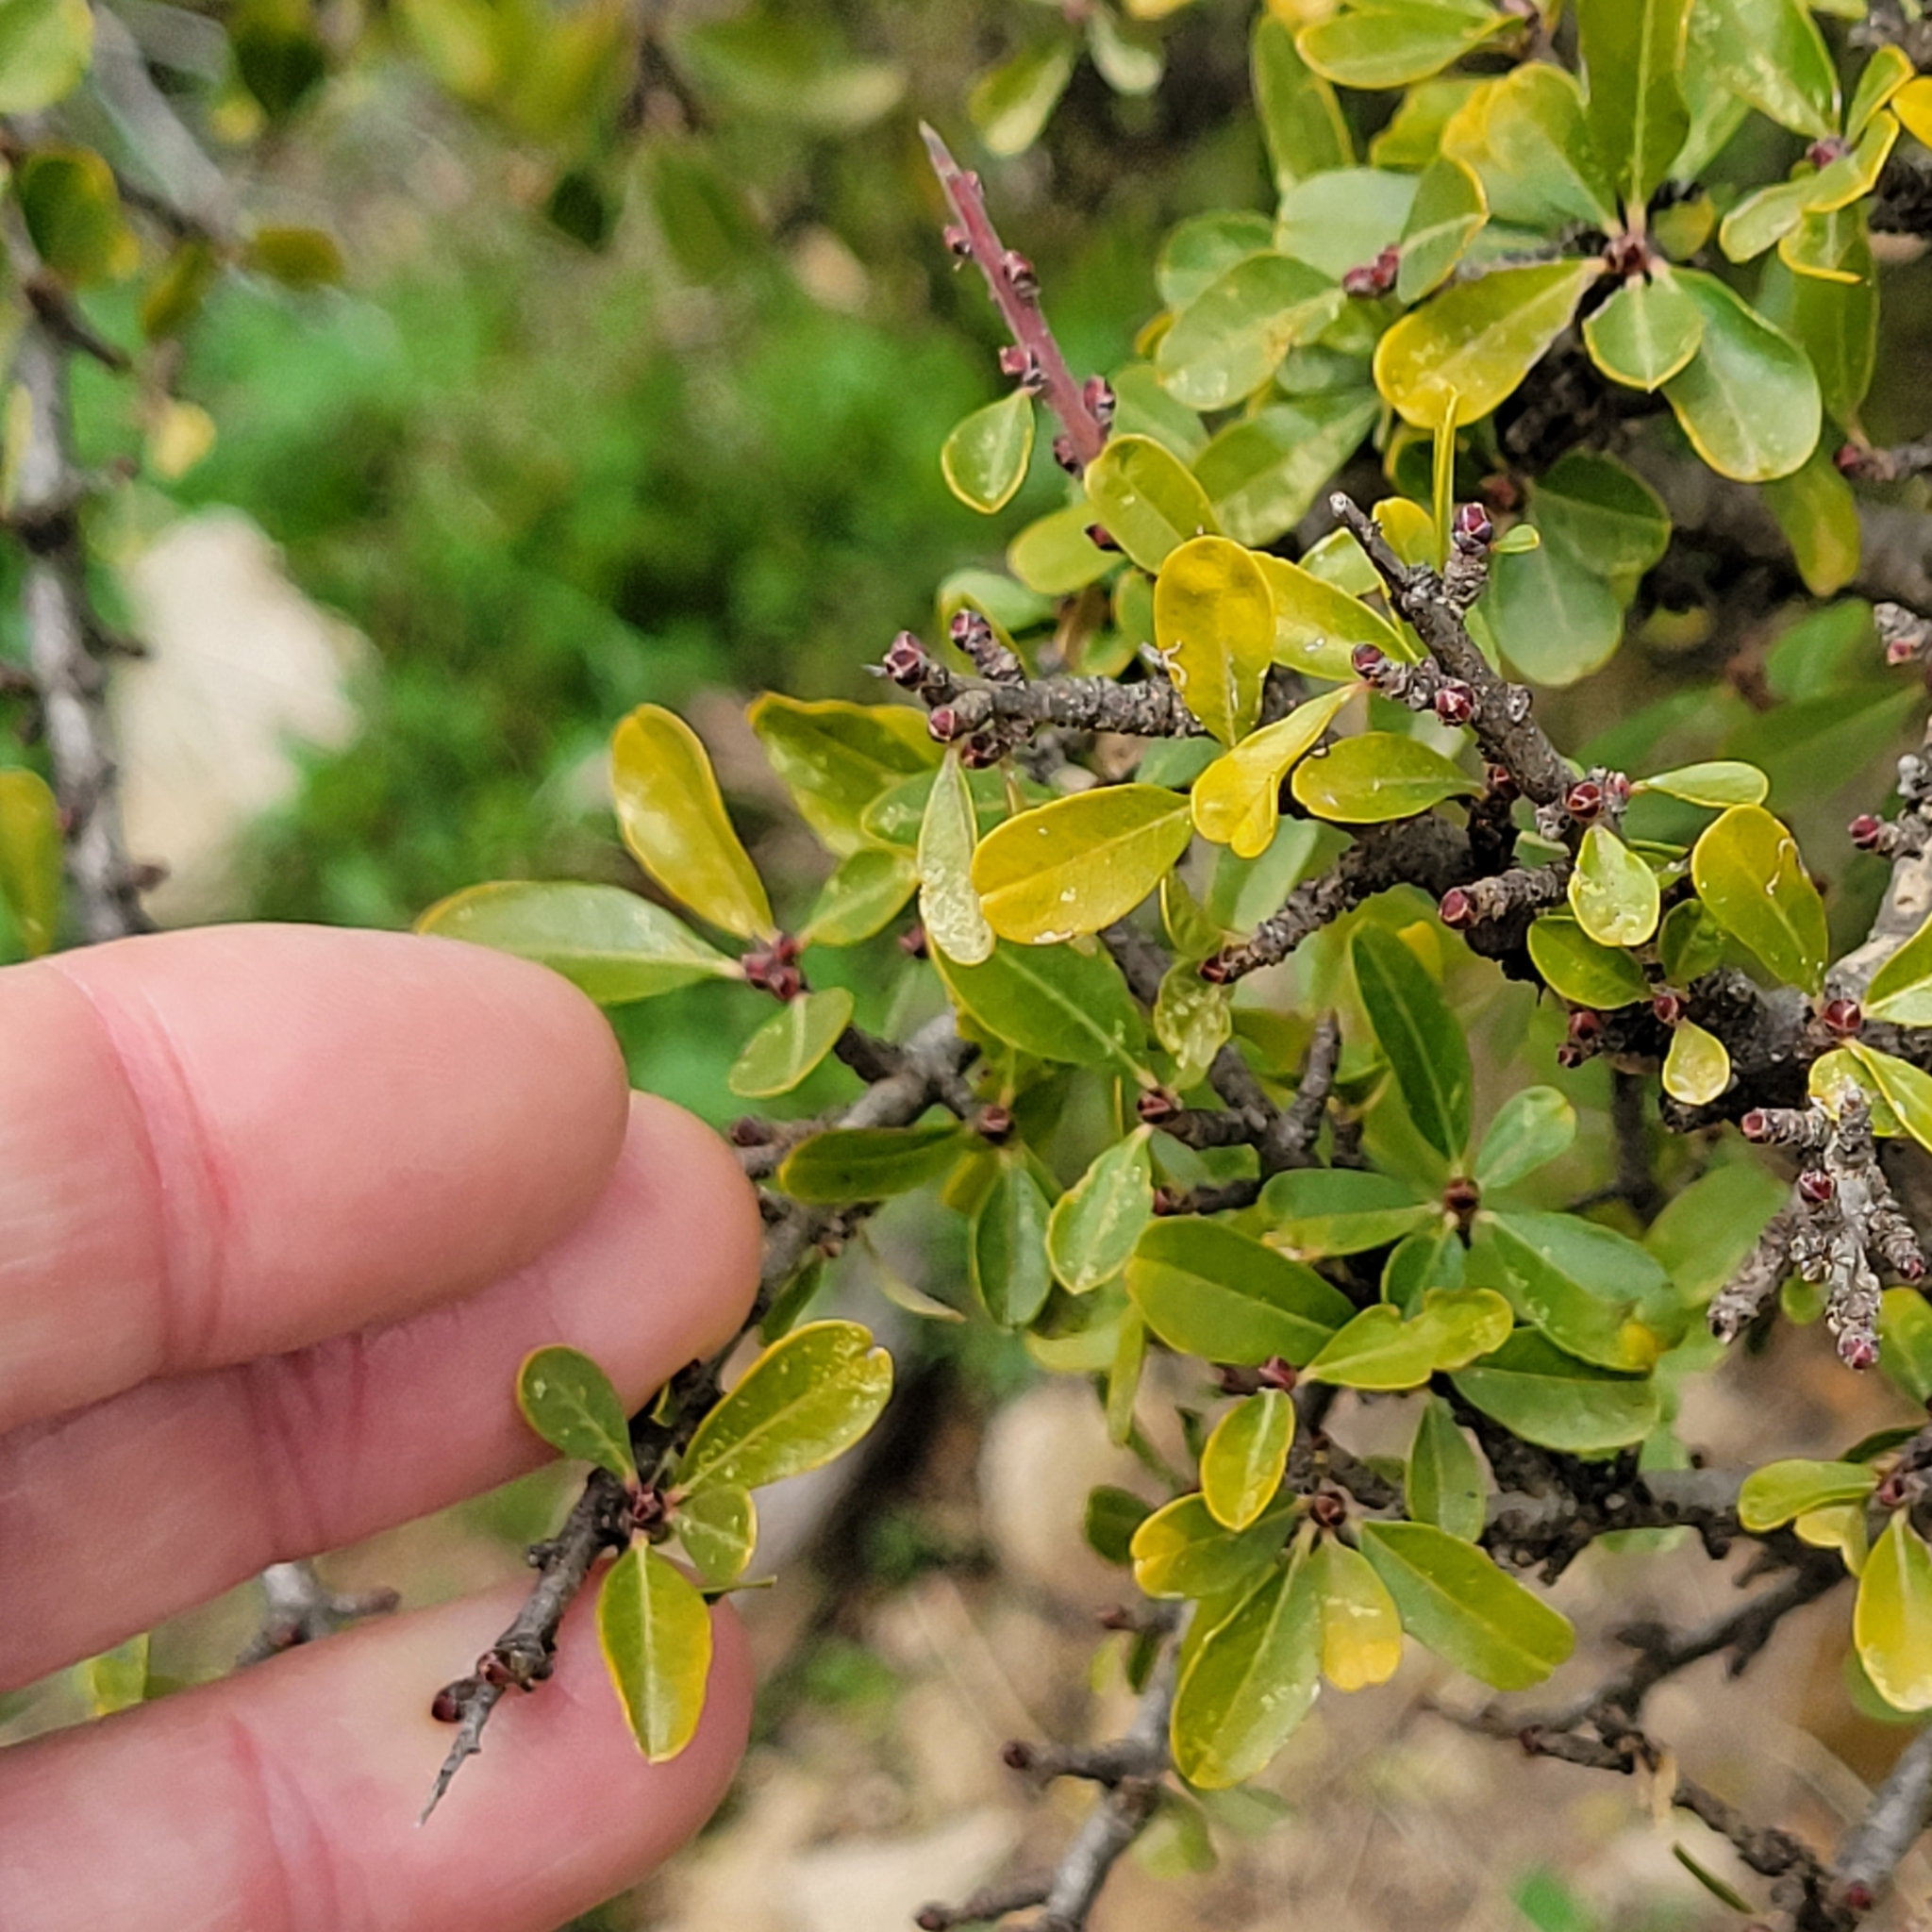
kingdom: Plantae
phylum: Tracheophyta
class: Magnoliopsida
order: Rosales
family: Rhamnaceae
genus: Rhamnus
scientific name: Rhamnus lycioides
